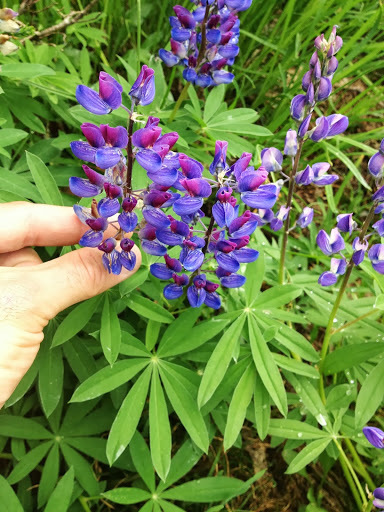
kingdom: Plantae
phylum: Tracheophyta
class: Magnoliopsida
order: Fabales
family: Fabaceae
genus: Lupinus
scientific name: Lupinus latifolius
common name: Broad-leaved lupine
